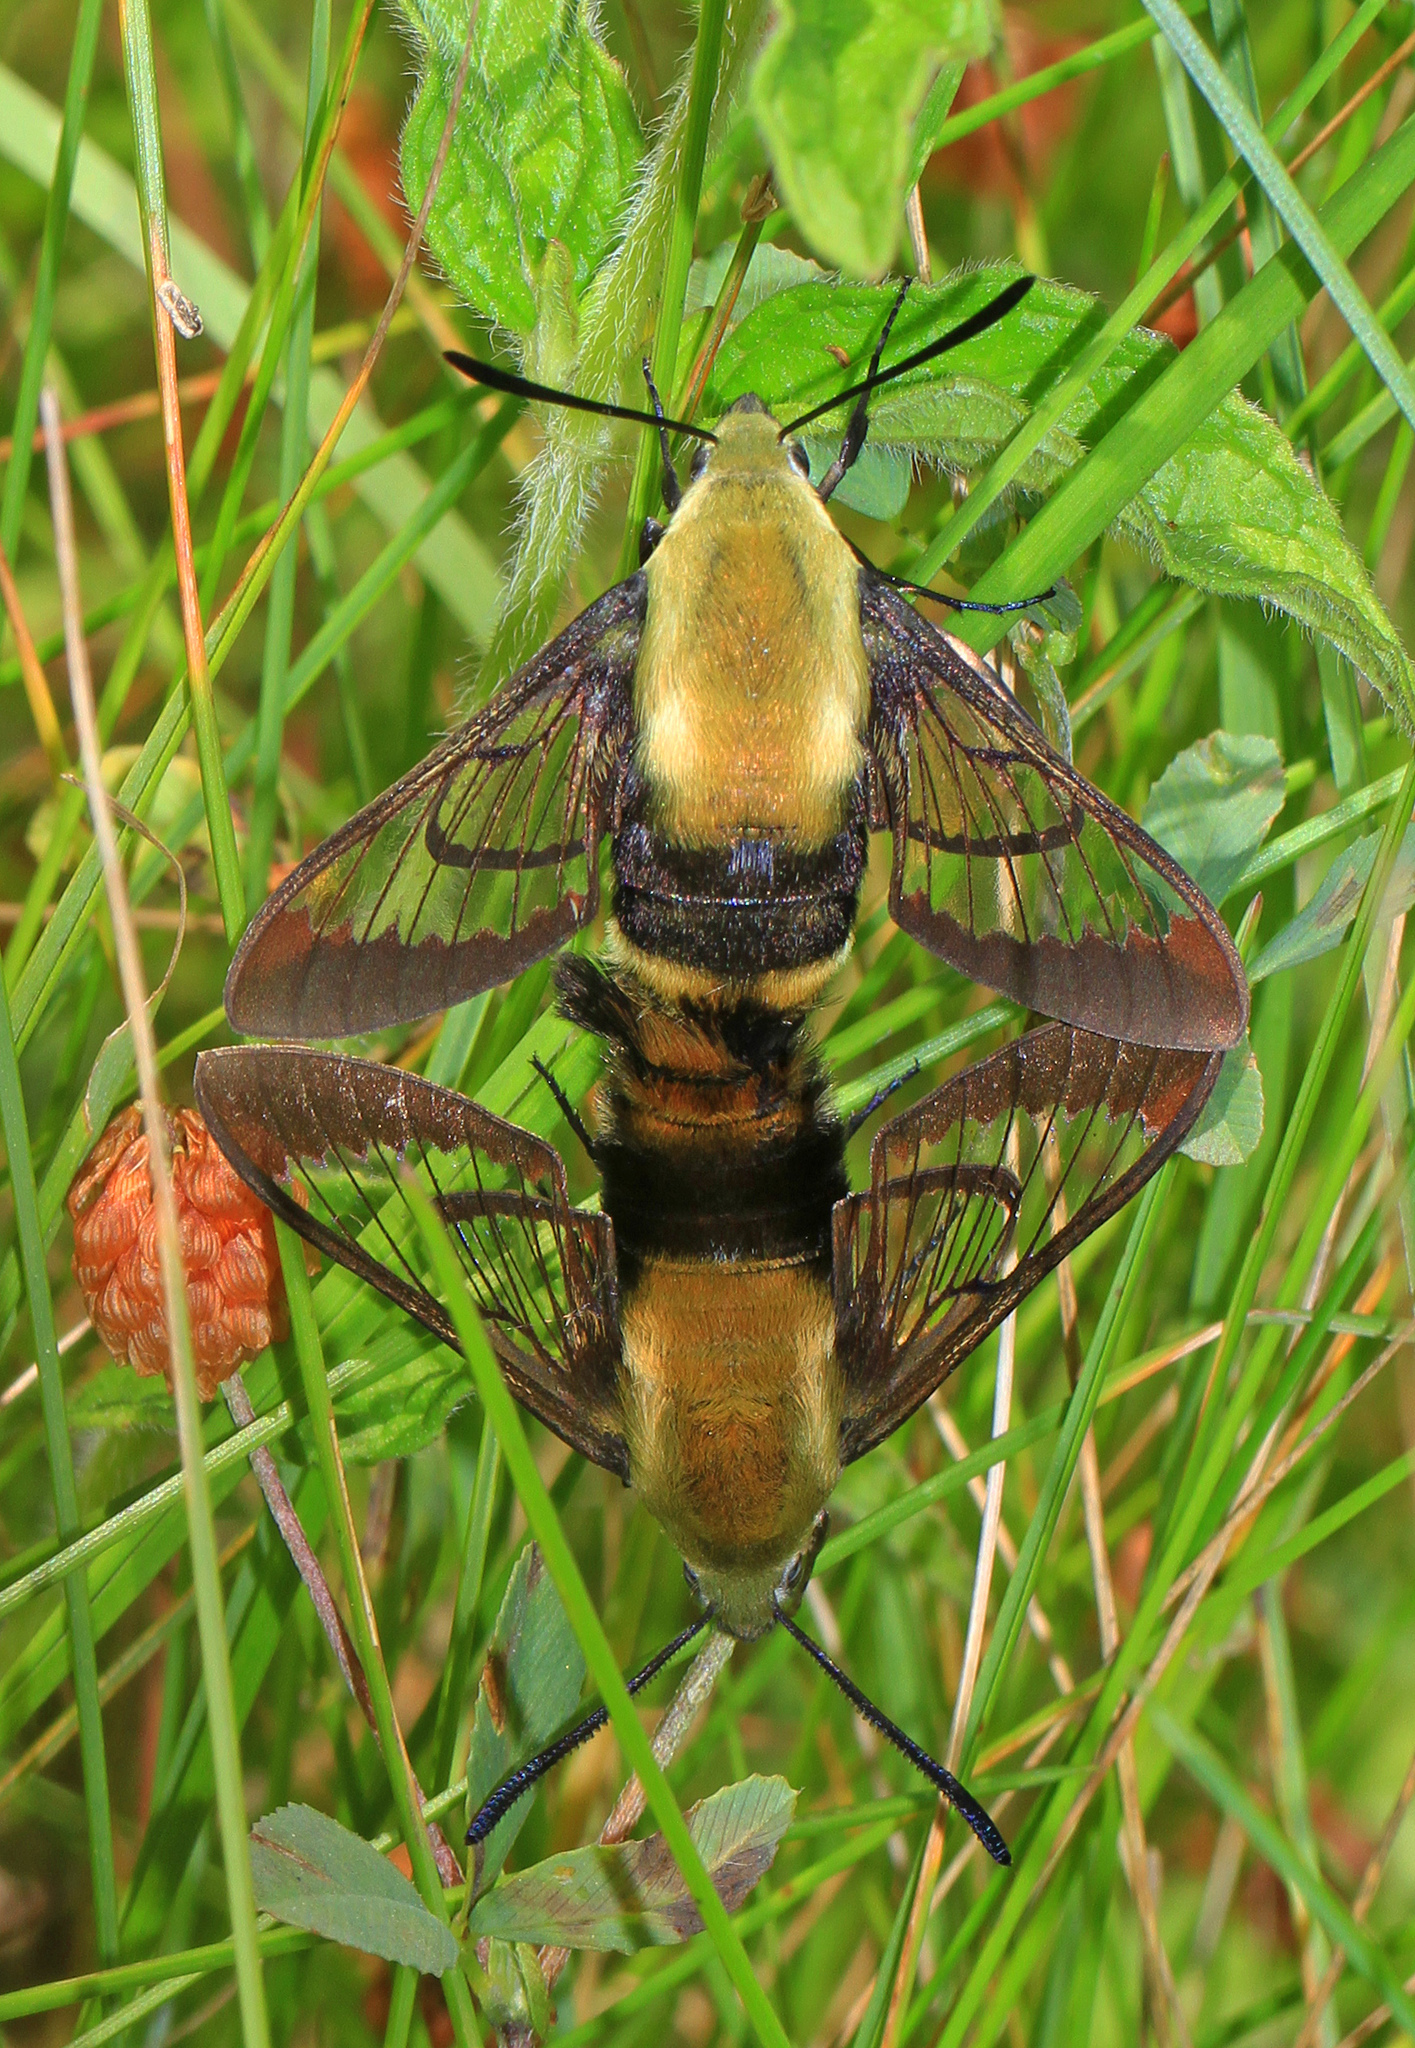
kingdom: Animalia
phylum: Arthropoda
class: Insecta
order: Lepidoptera
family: Sphingidae
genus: Hemaris
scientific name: Hemaris diffinis
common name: Bumblebee moth
